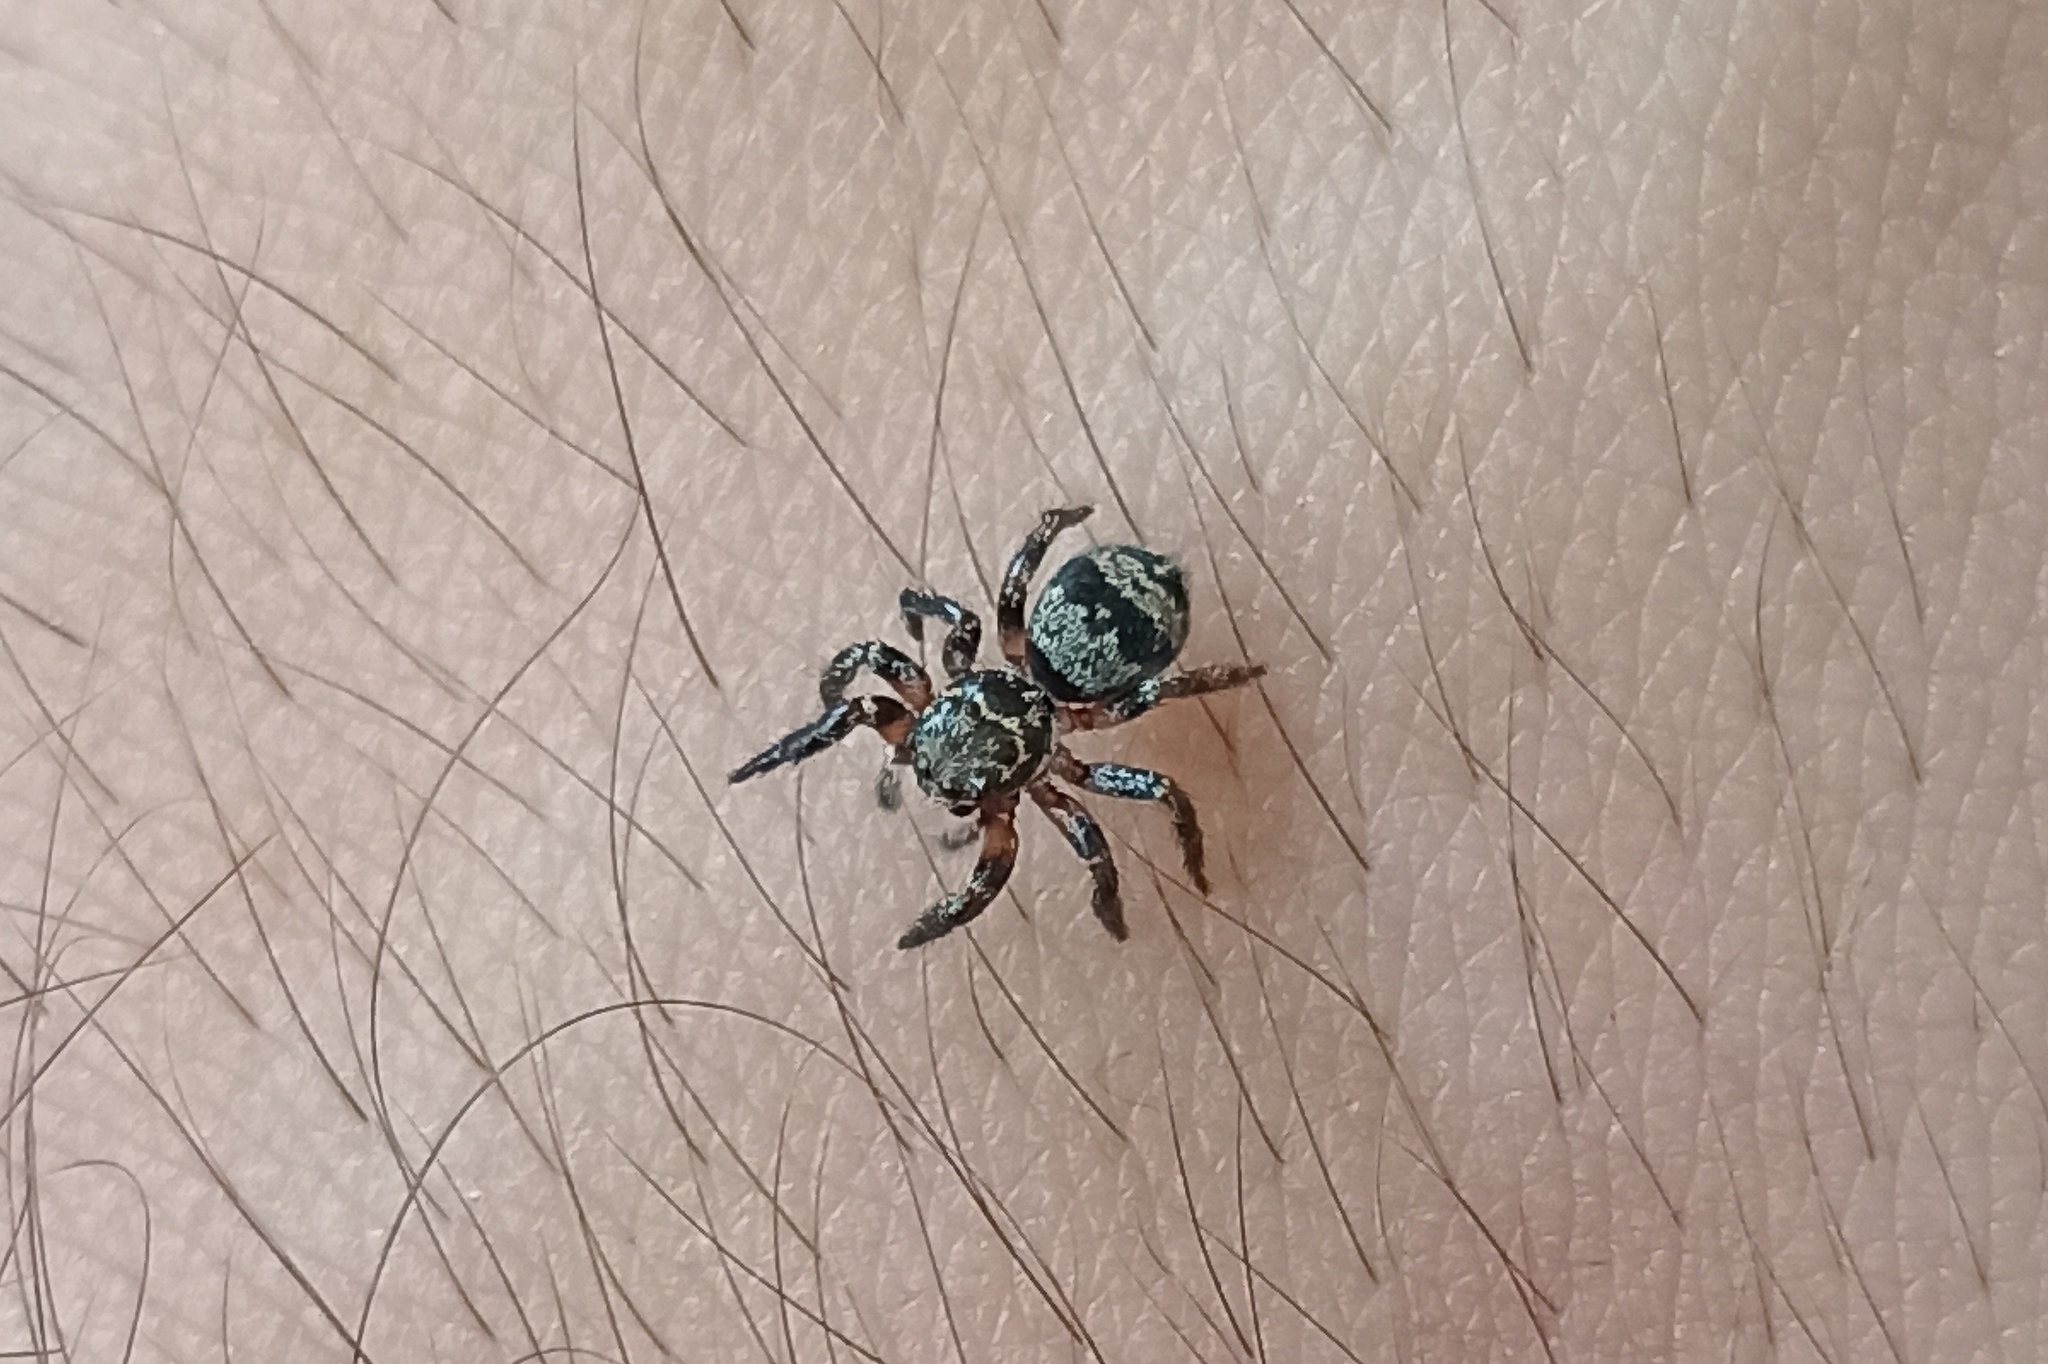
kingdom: Animalia
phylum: Arthropoda
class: Arachnida
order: Araneae
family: Salticidae
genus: Corythalia
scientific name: Corythalia conferta
